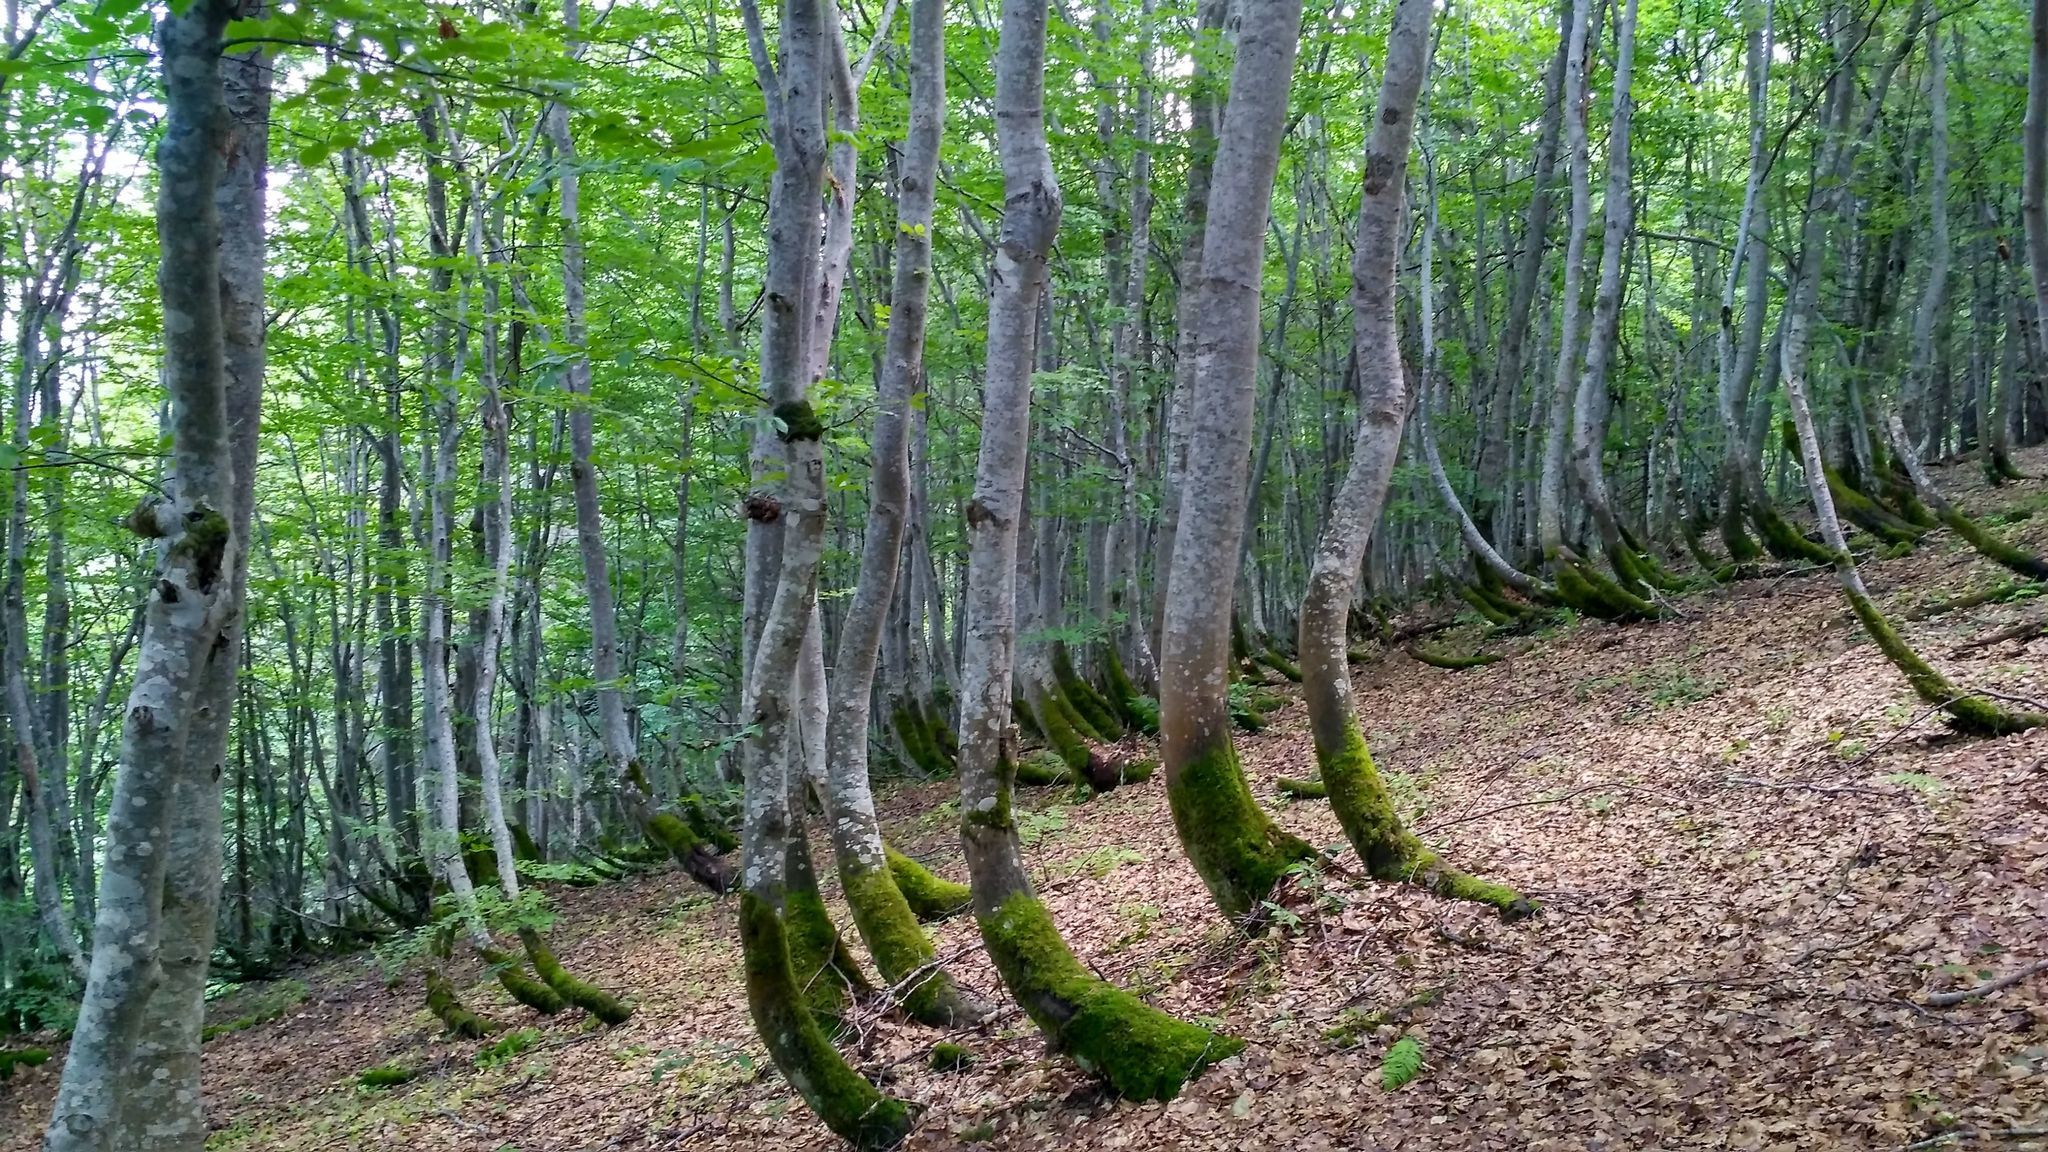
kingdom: Plantae
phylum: Tracheophyta
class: Magnoliopsida
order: Fagales
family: Fagaceae
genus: Fagus
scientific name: Fagus sylvatica
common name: Beech
